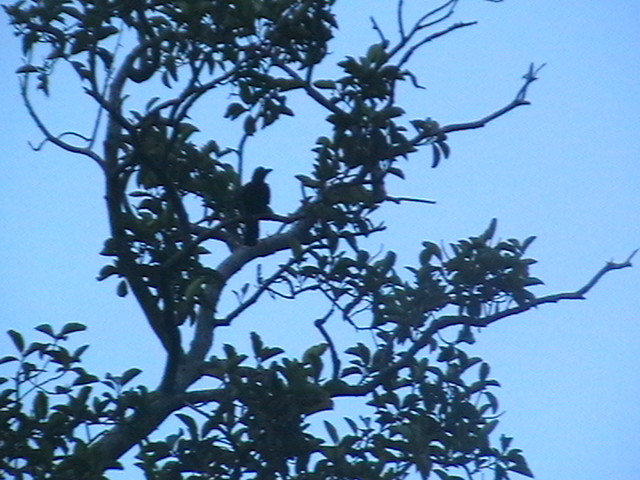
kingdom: Animalia
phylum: Chordata
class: Aves
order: Passeriformes
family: Corvidae
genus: Corvus
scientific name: Corvus macrorhynchos
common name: Large-billed crow
